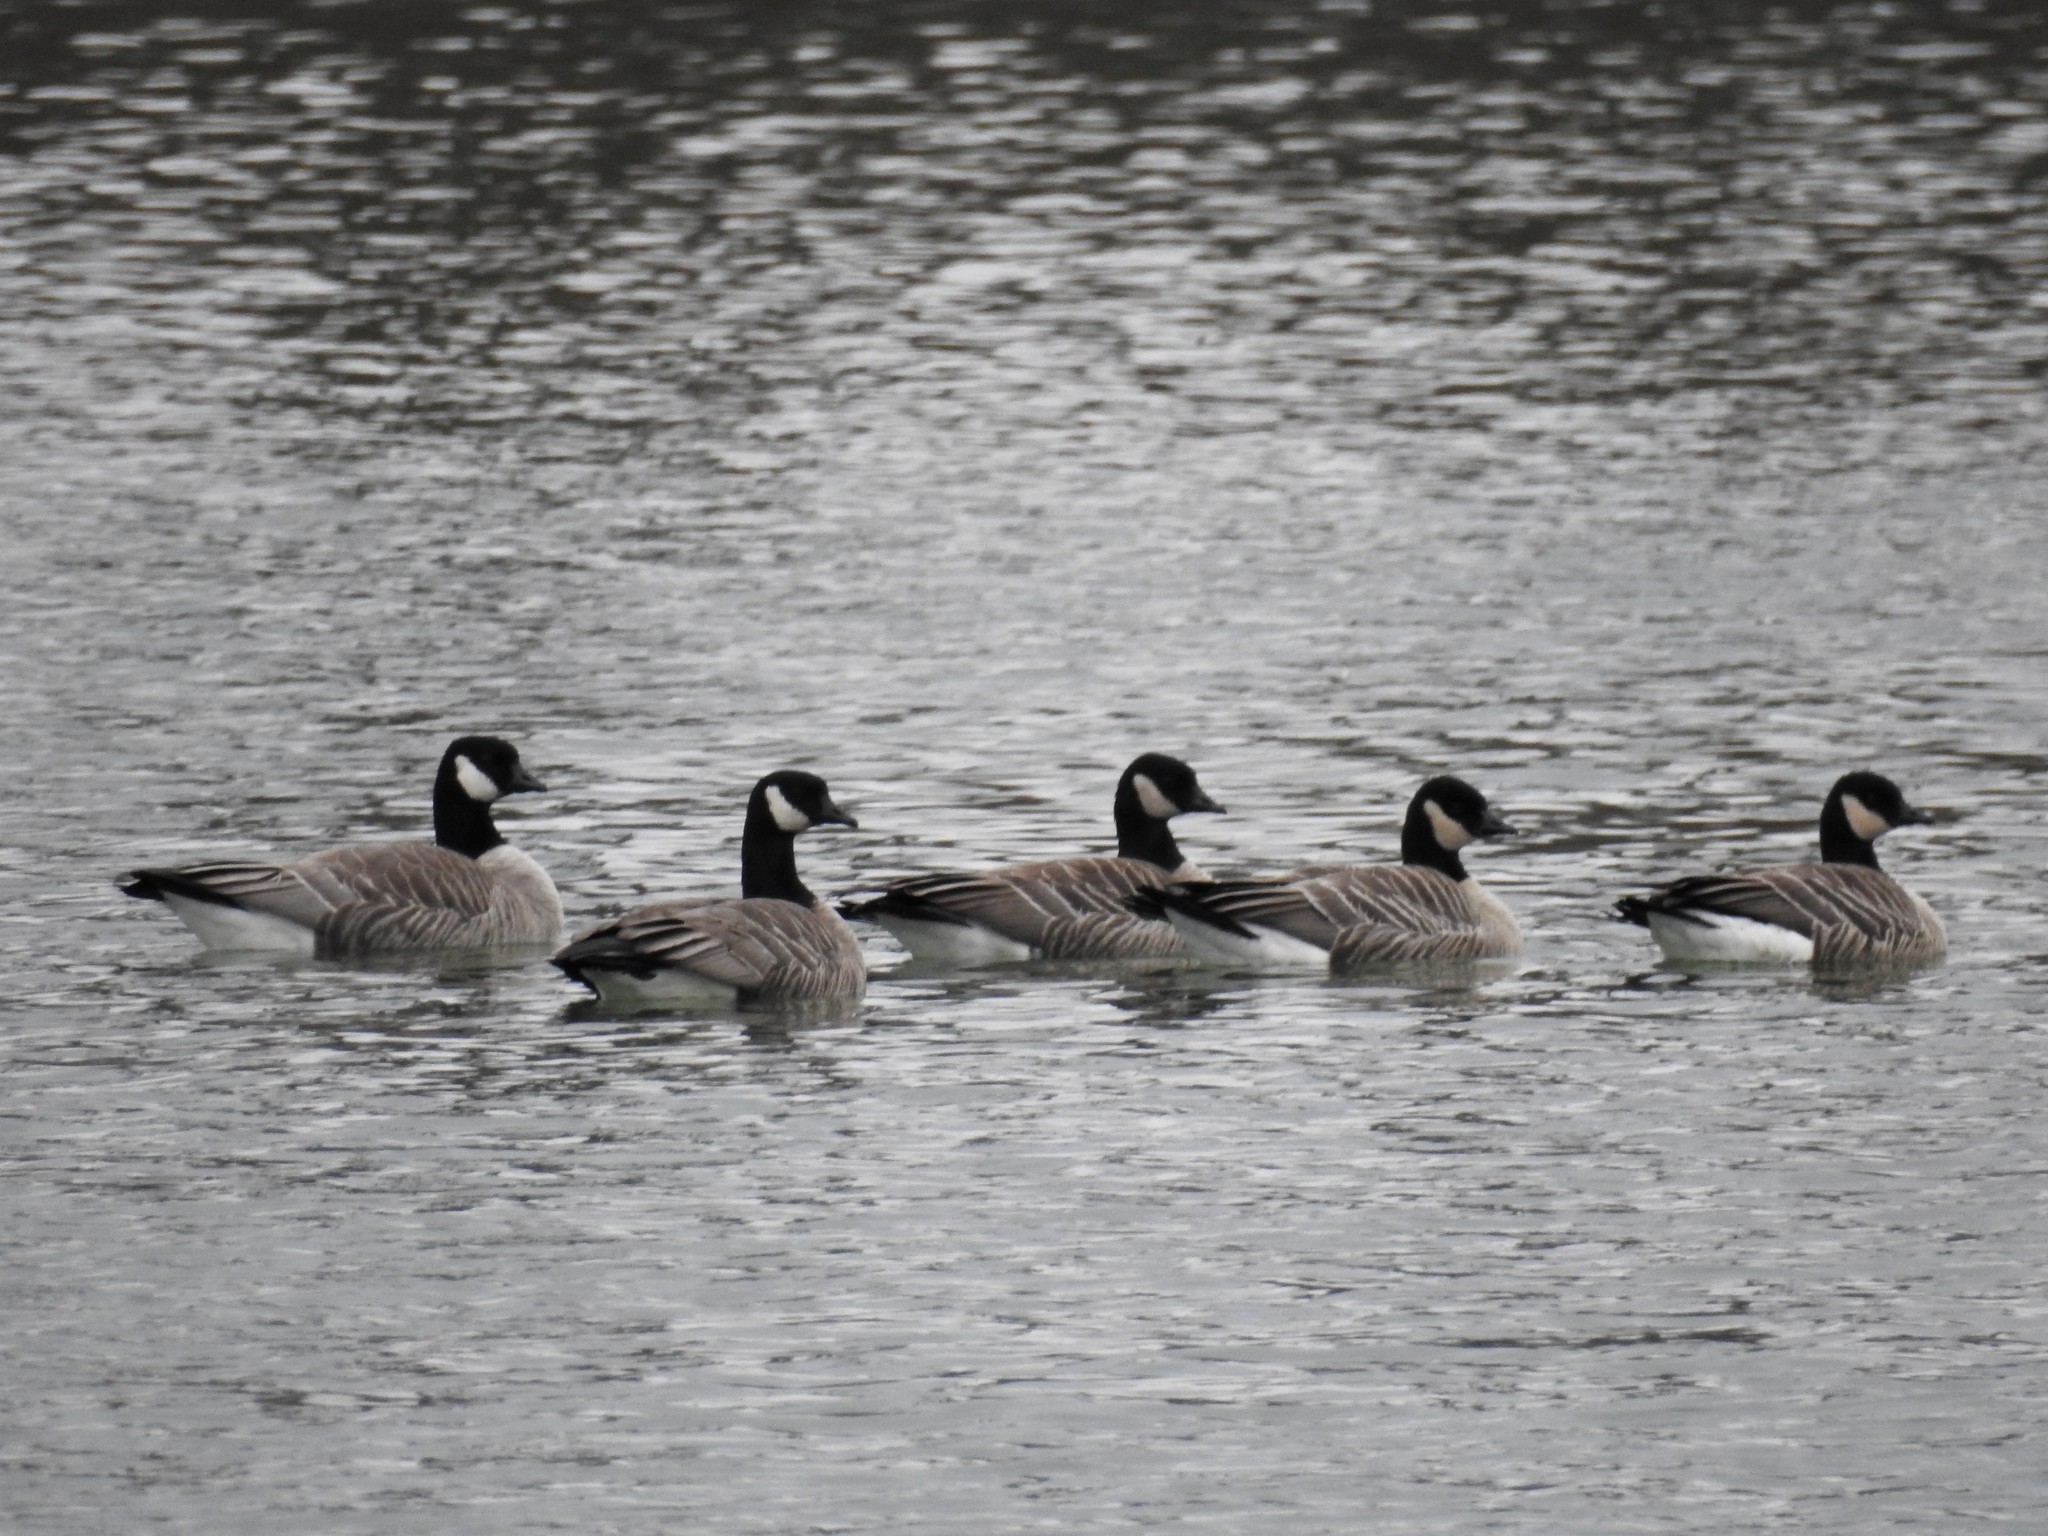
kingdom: Animalia
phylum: Chordata
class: Aves
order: Anseriformes
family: Anatidae
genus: Branta
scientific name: Branta hutchinsii
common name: Cackling goose
